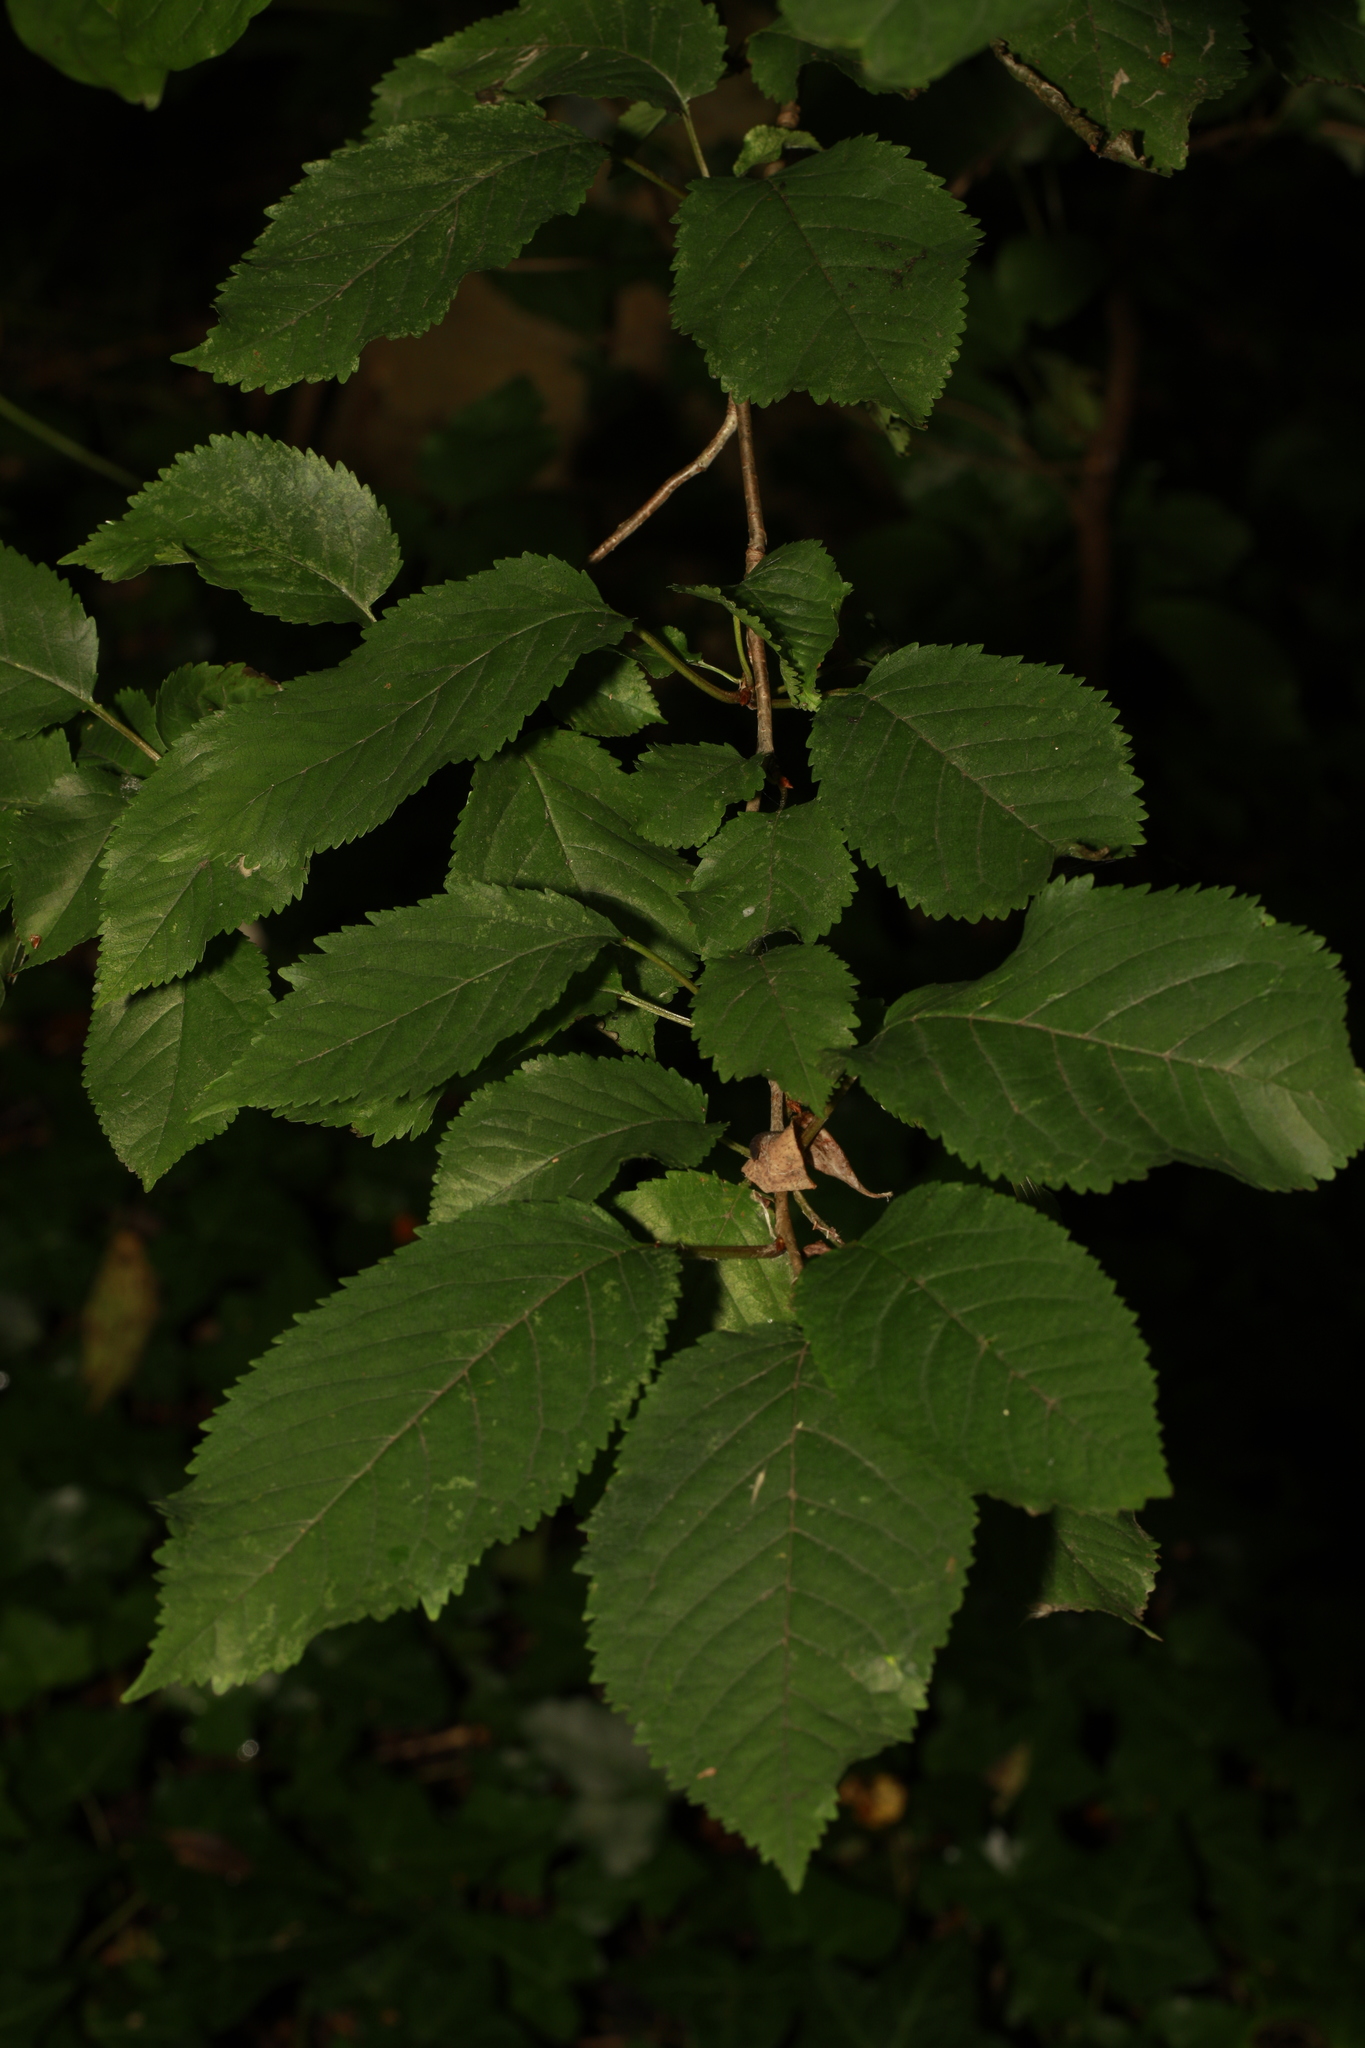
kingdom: Plantae
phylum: Tracheophyta
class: Magnoliopsida
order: Rosales
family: Rosaceae
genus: Prunus
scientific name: Prunus avium
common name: Sweet cherry
